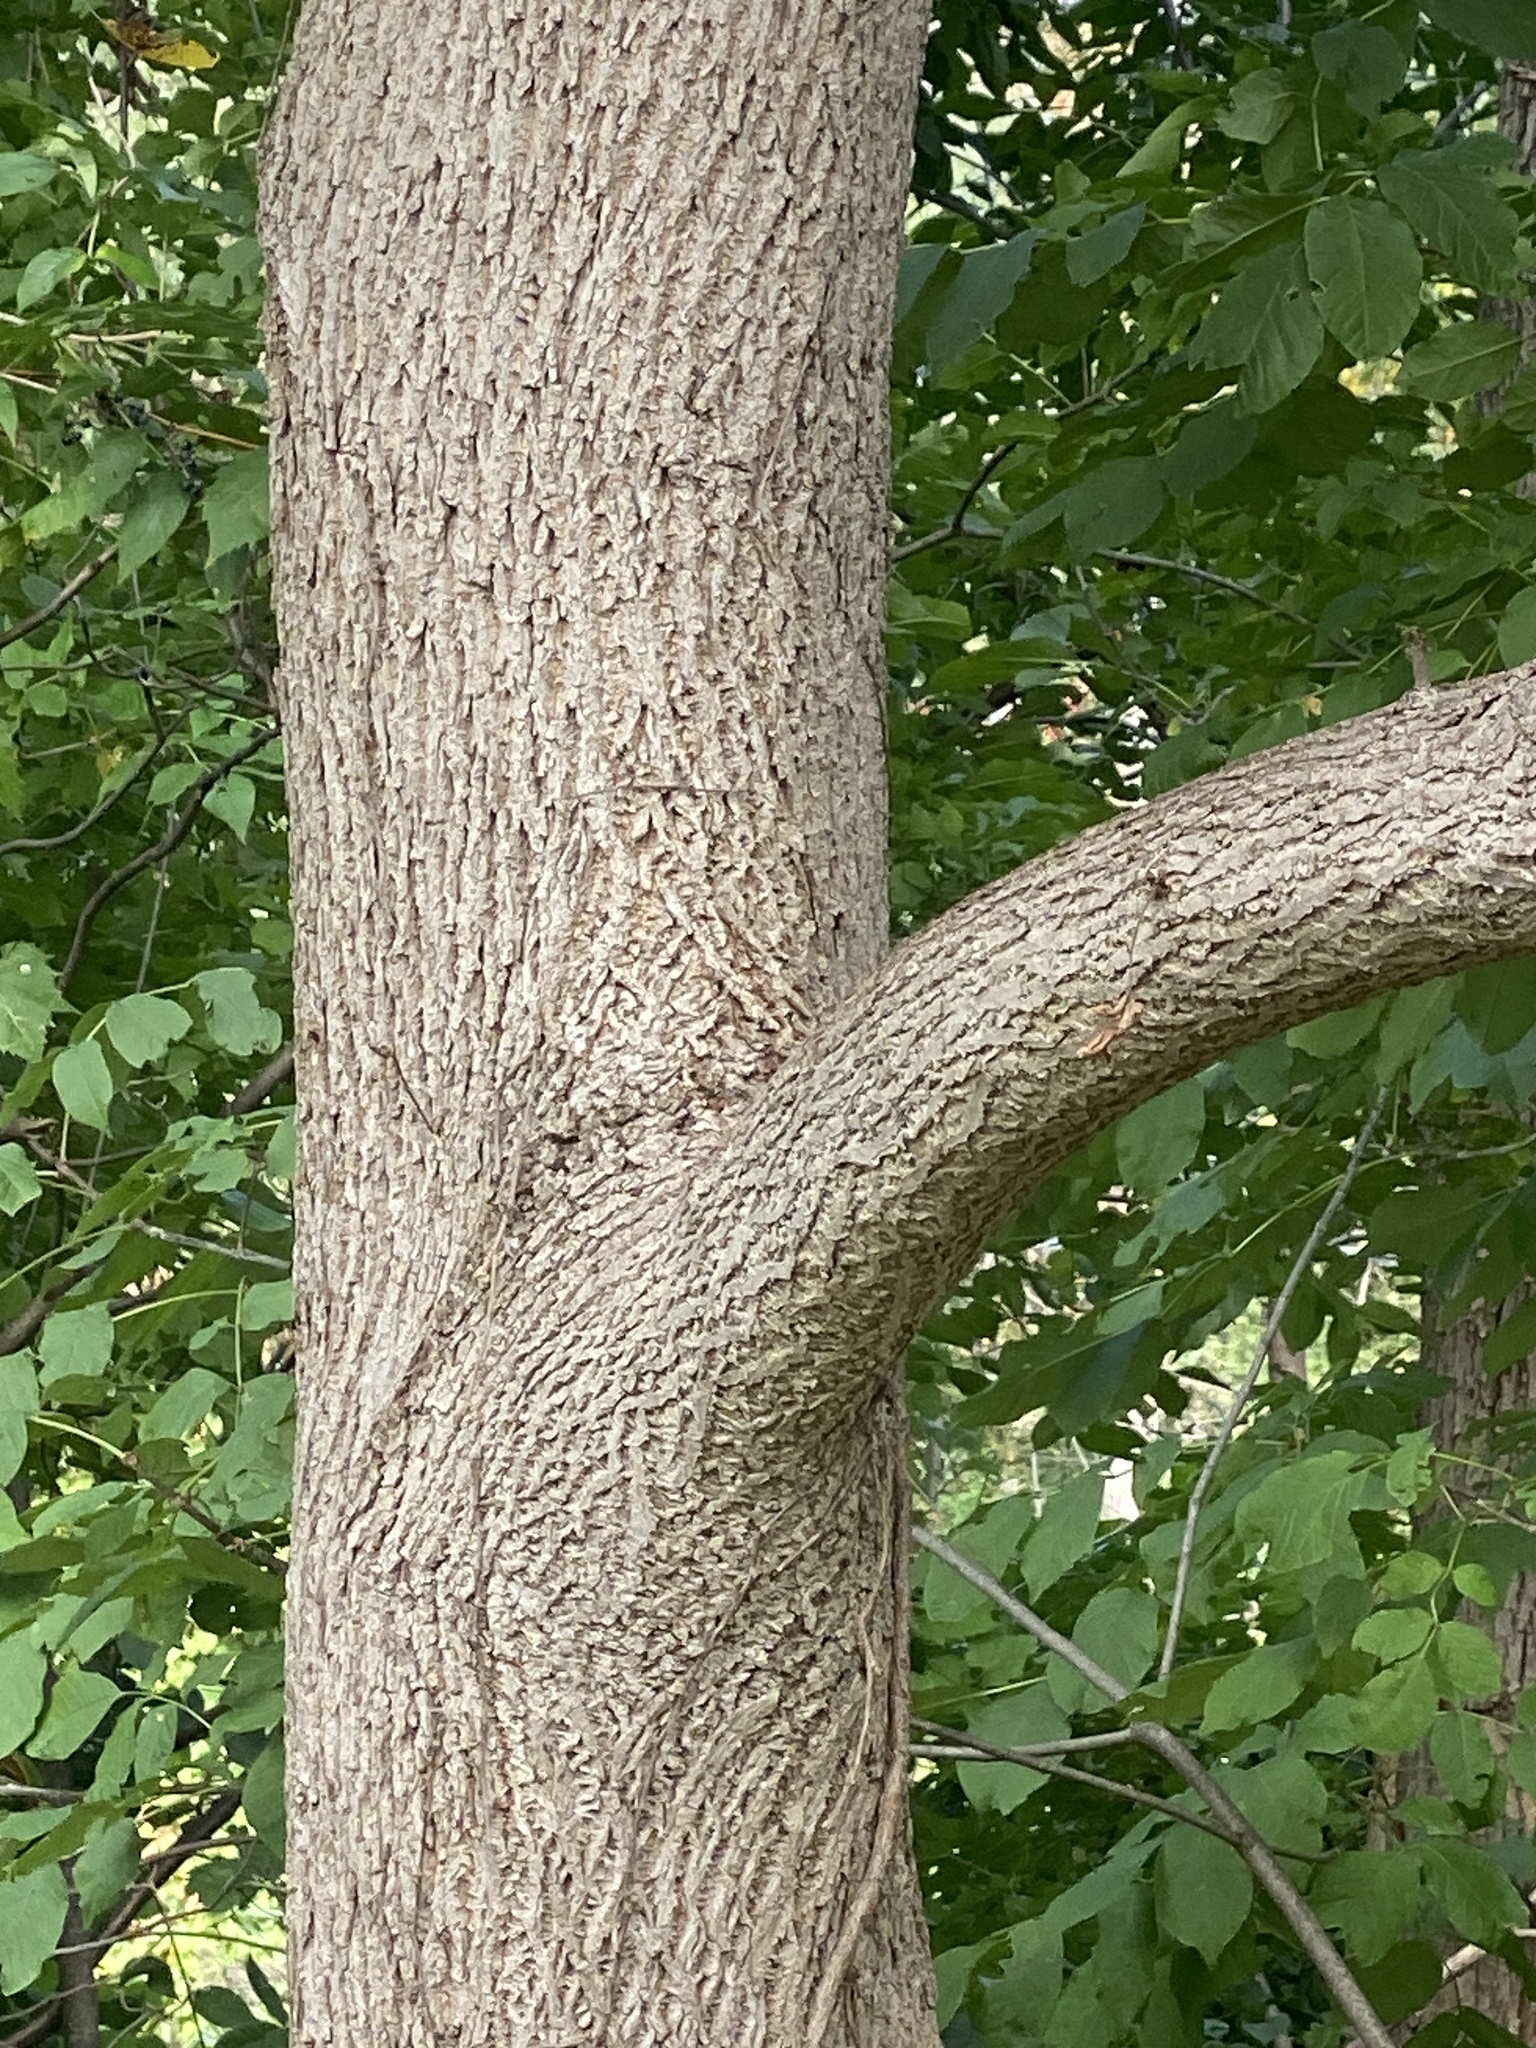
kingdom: Plantae
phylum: Tracheophyta
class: Magnoliopsida
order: Fagales
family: Juglandaceae
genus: Juglans
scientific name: Juglans nigra
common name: Black walnut
